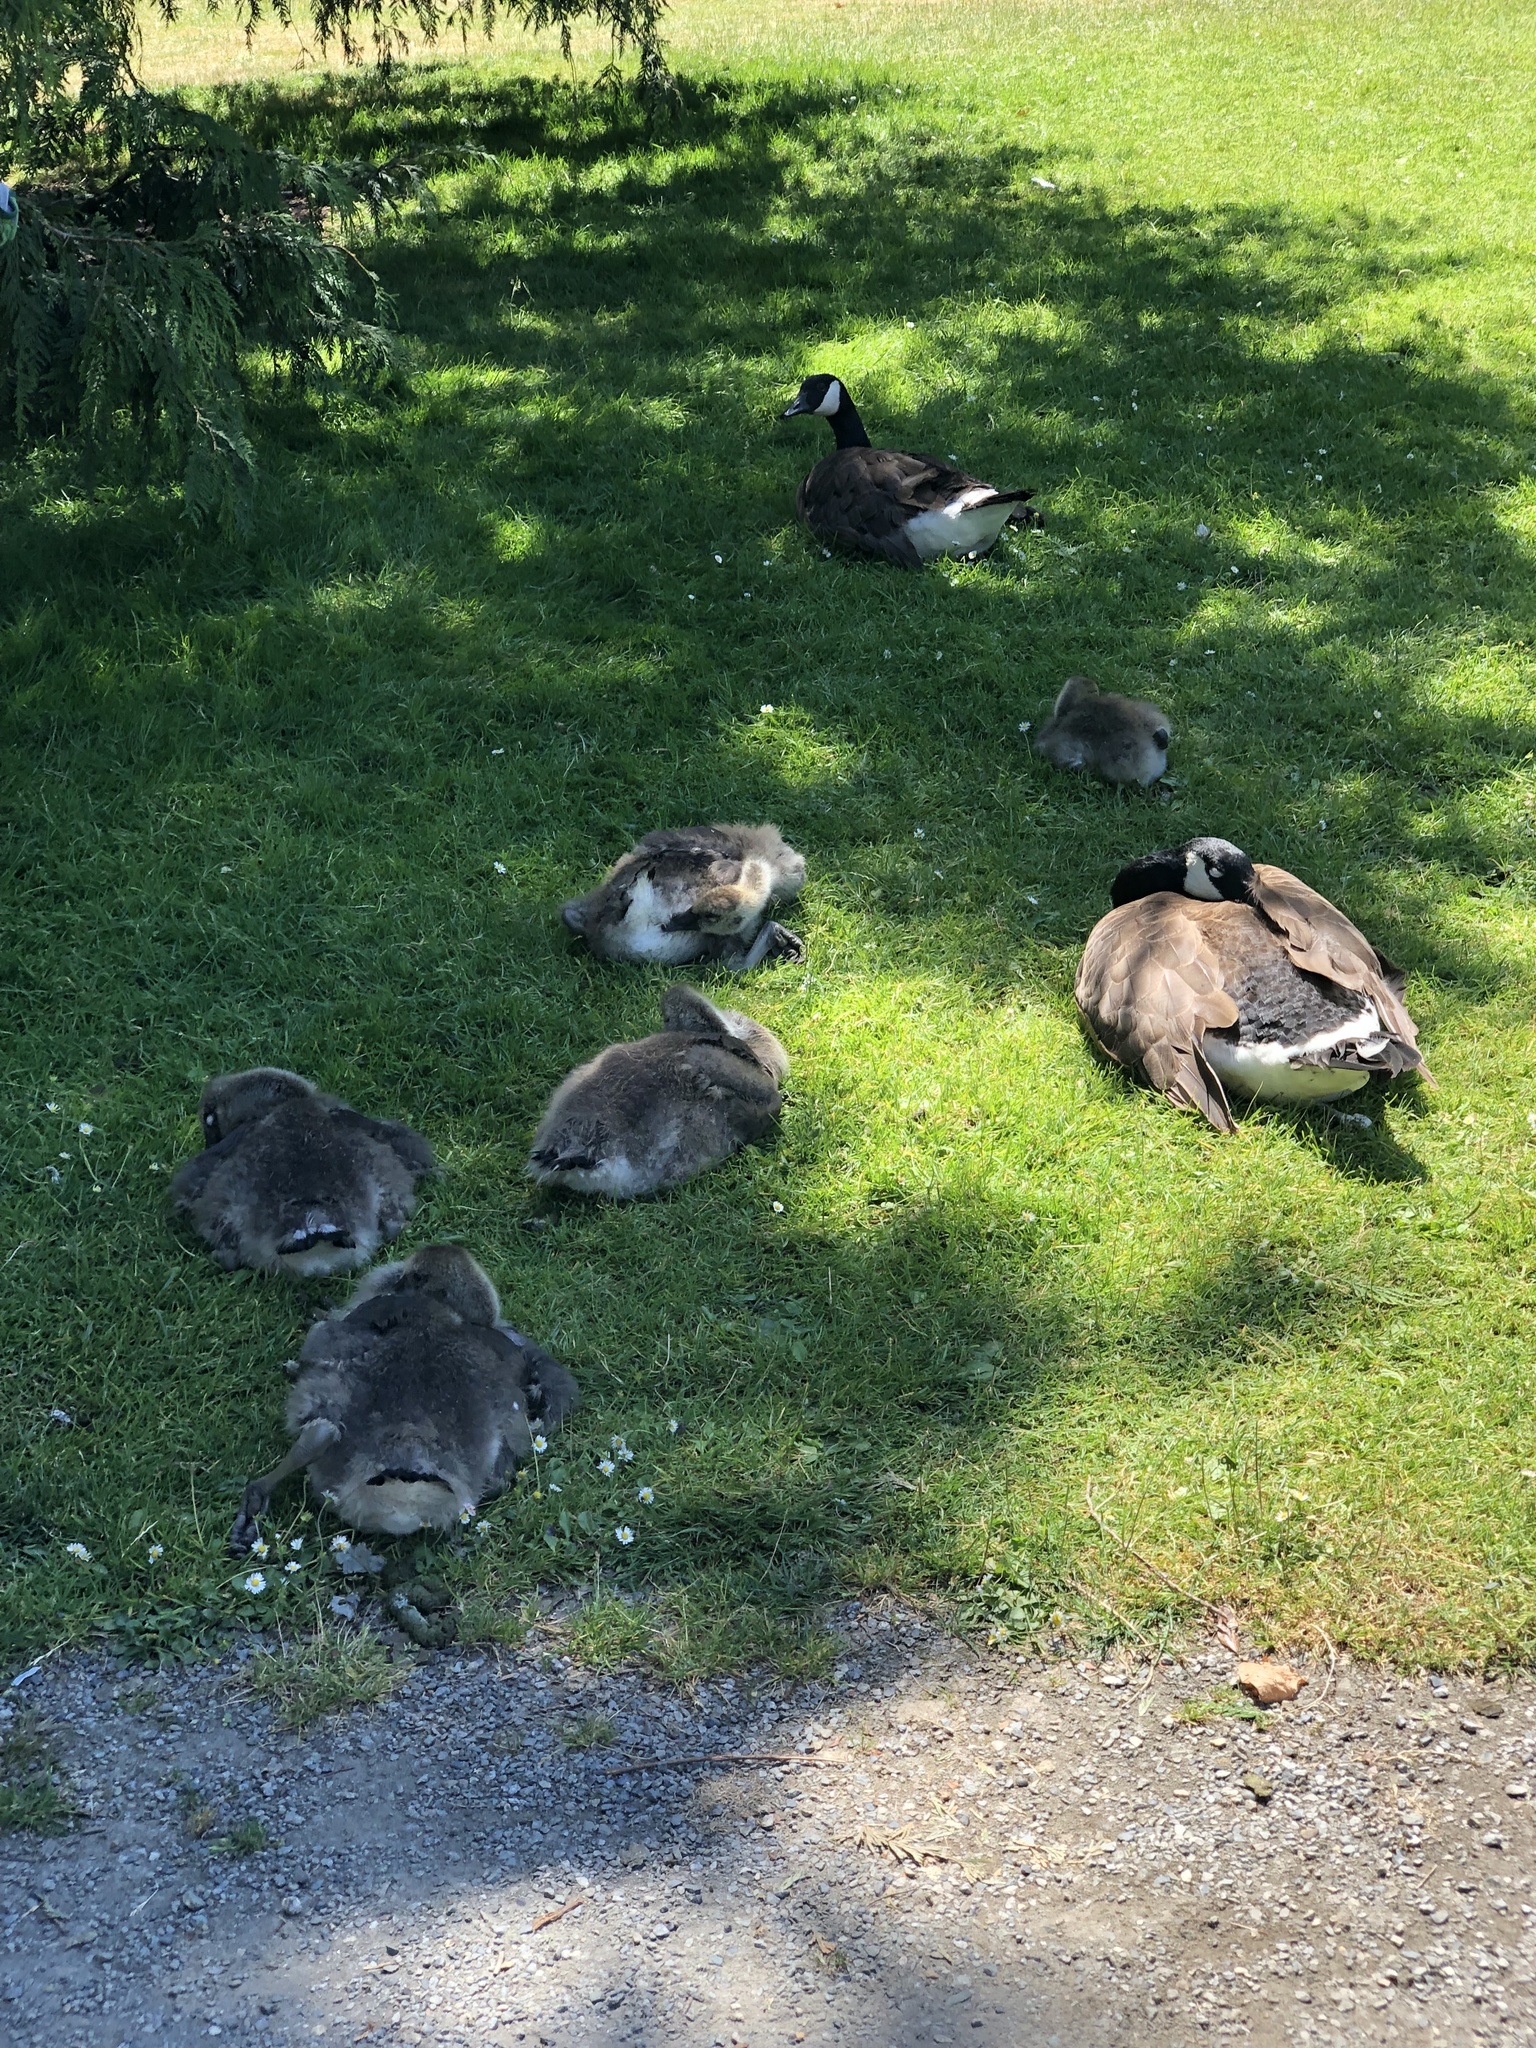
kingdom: Animalia
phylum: Chordata
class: Aves
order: Anseriformes
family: Anatidae
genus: Branta
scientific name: Branta canadensis
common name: Canada goose
